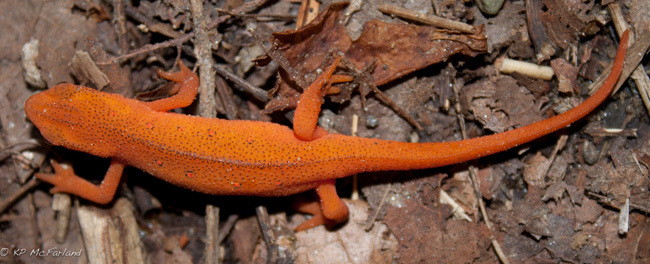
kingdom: Animalia
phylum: Chordata
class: Amphibia
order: Caudata
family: Salamandridae
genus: Notophthalmus
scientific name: Notophthalmus viridescens
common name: Eastern newt
